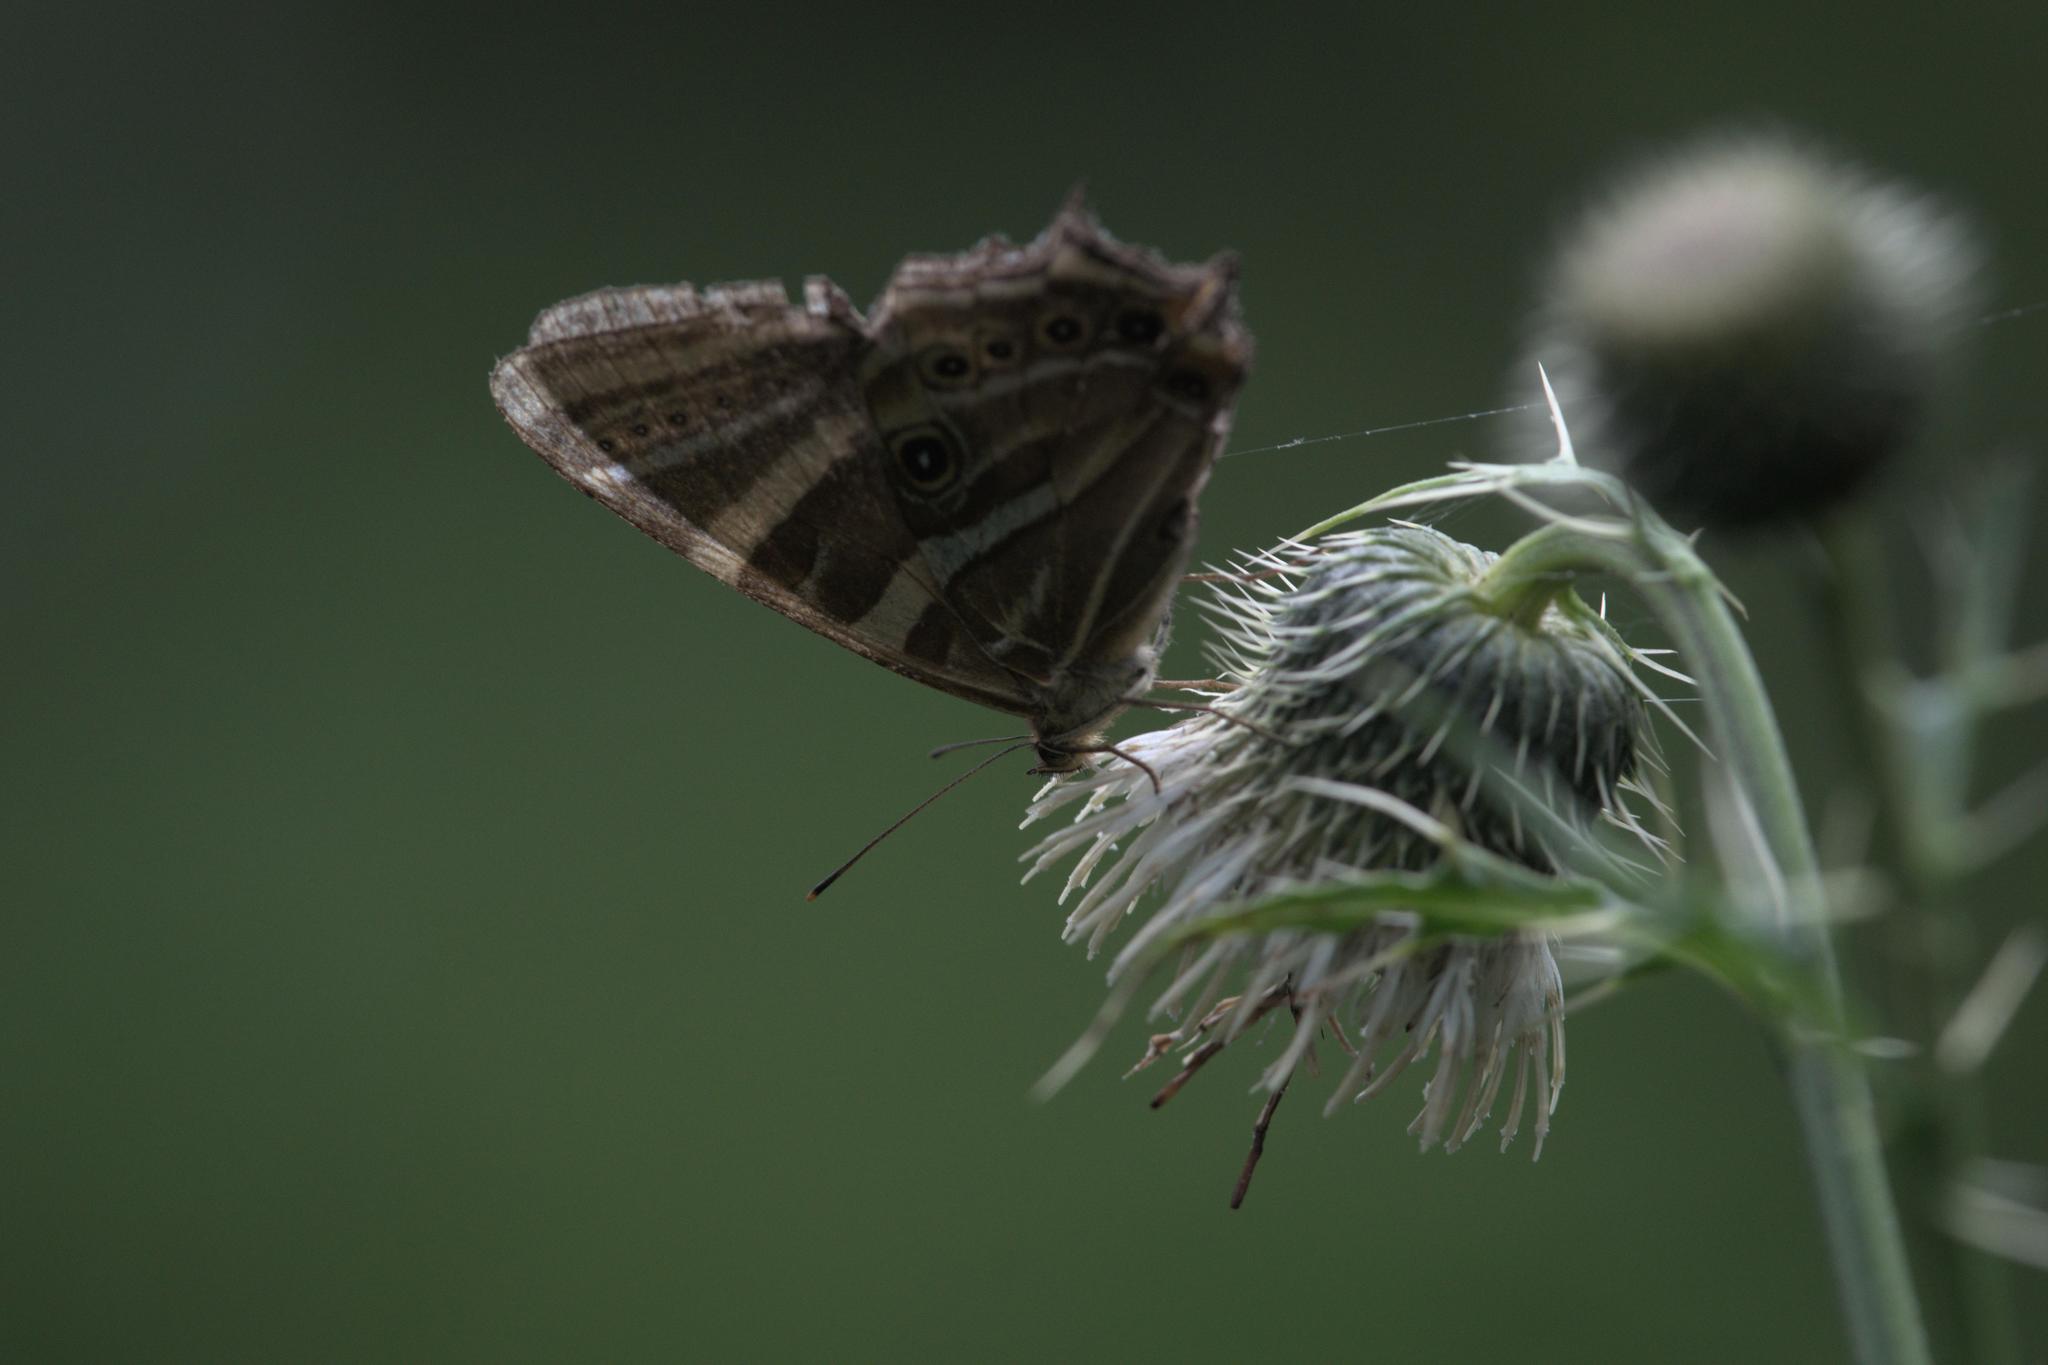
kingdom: Animalia
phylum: Arthropoda
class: Insecta
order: Lepidoptera
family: Nymphalidae
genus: Lethe
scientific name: Lethe baladeva
